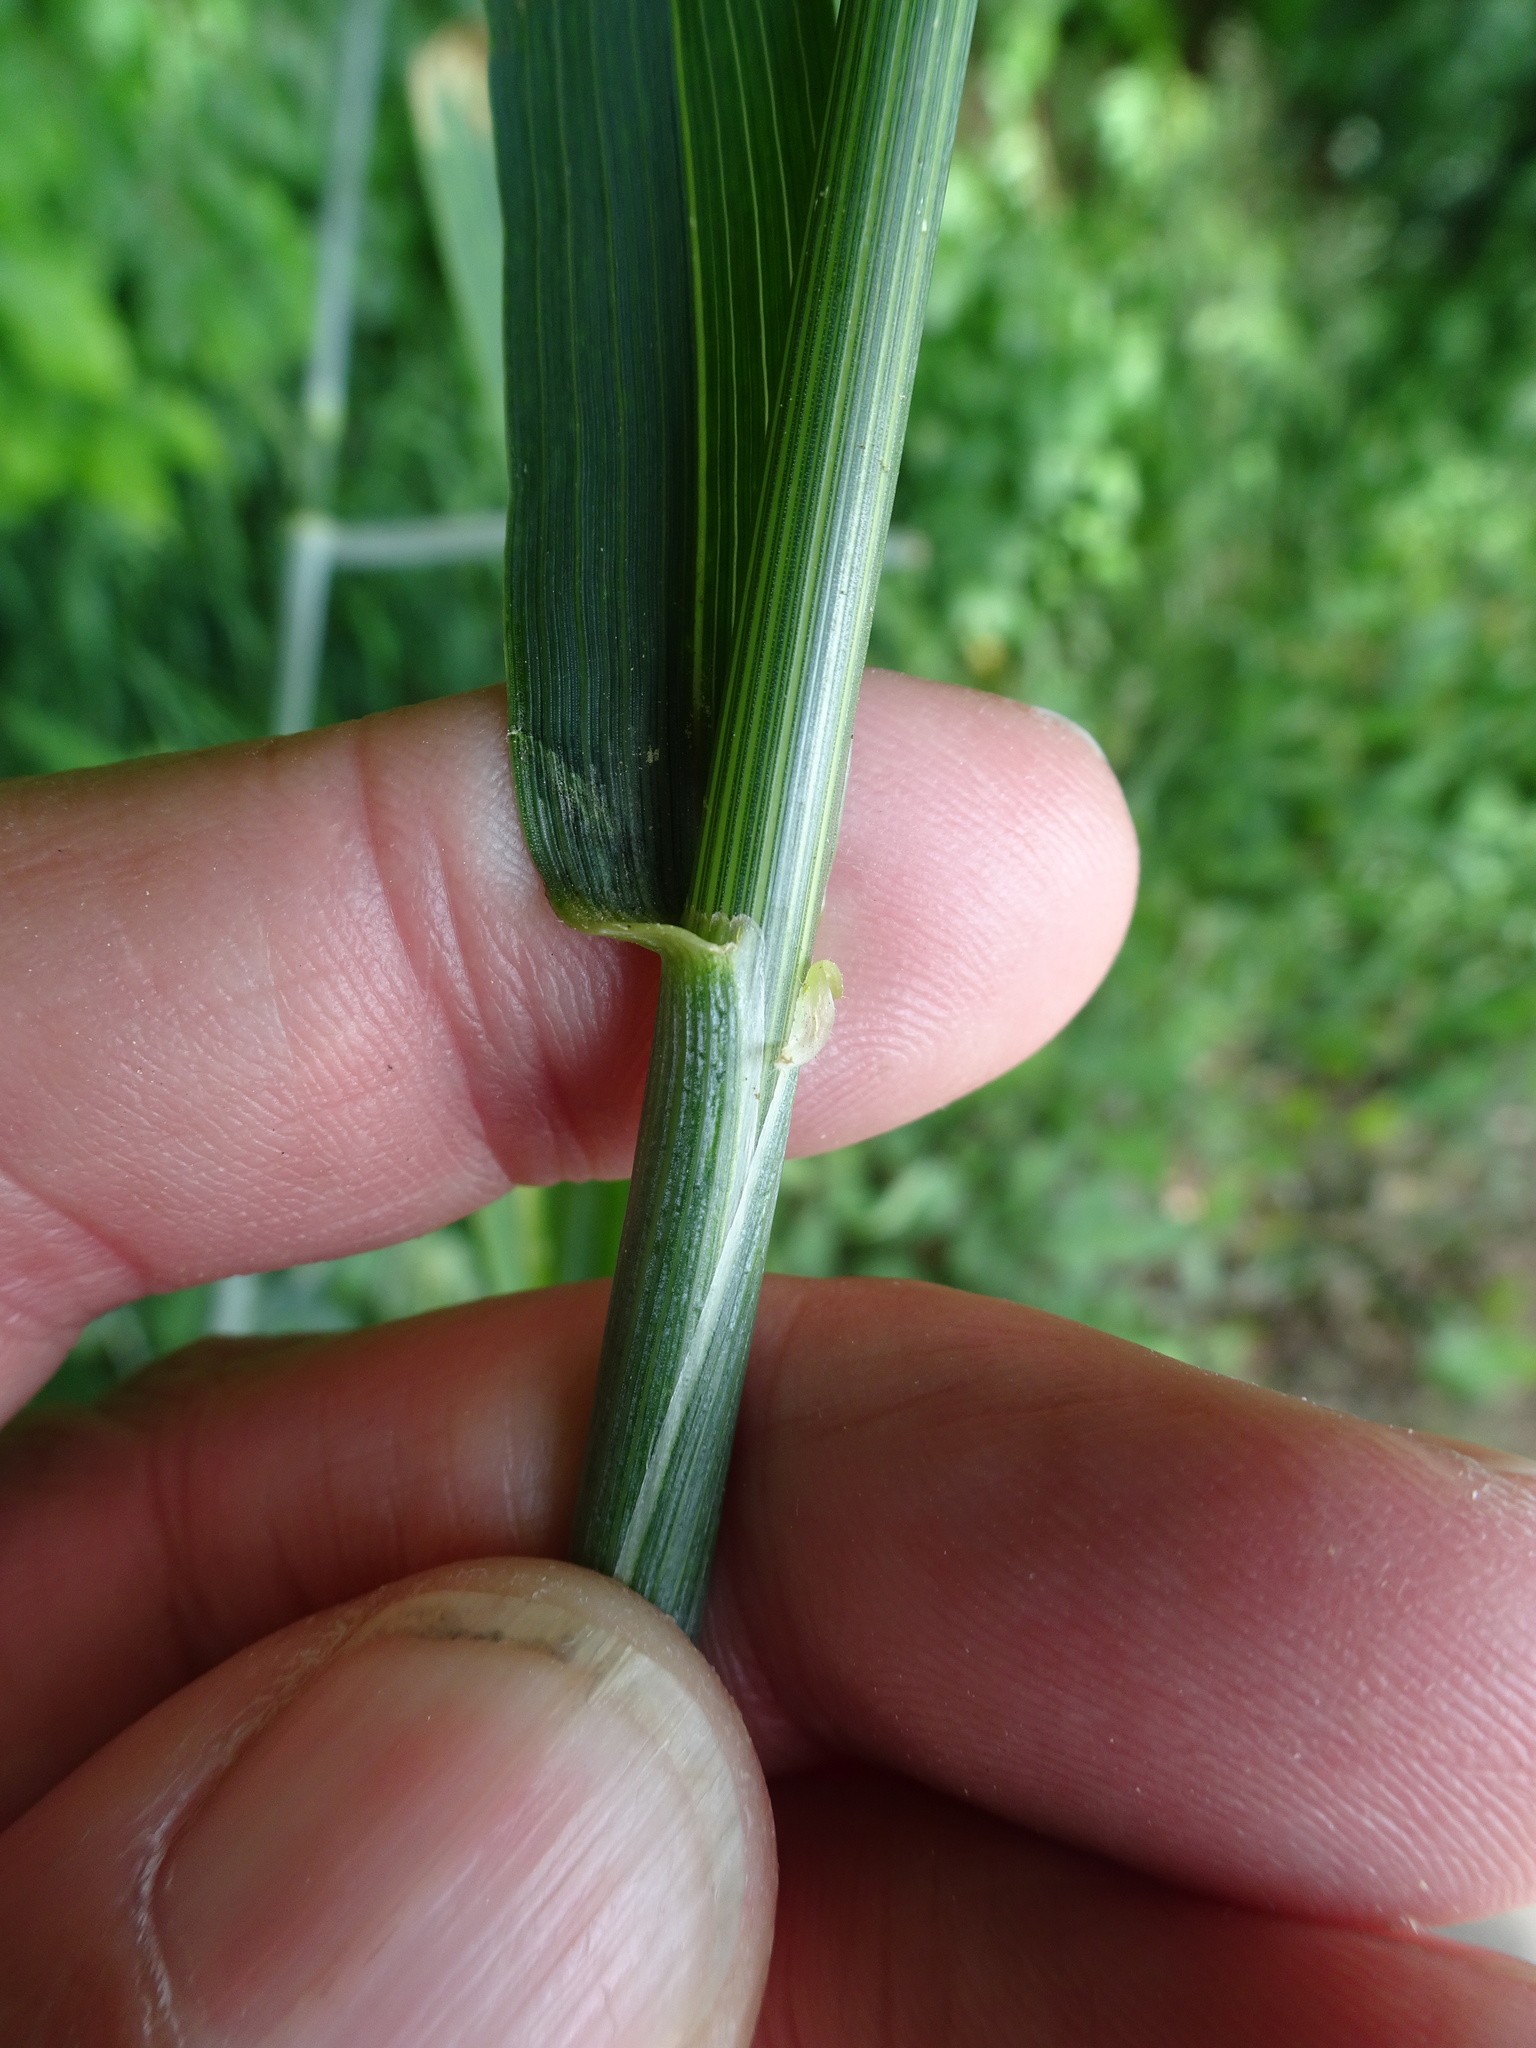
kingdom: Plantae
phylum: Tracheophyta
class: Liliopsida
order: Poales
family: Poaceae
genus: Triticum
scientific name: Triticum aestivum
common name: Common wheat
